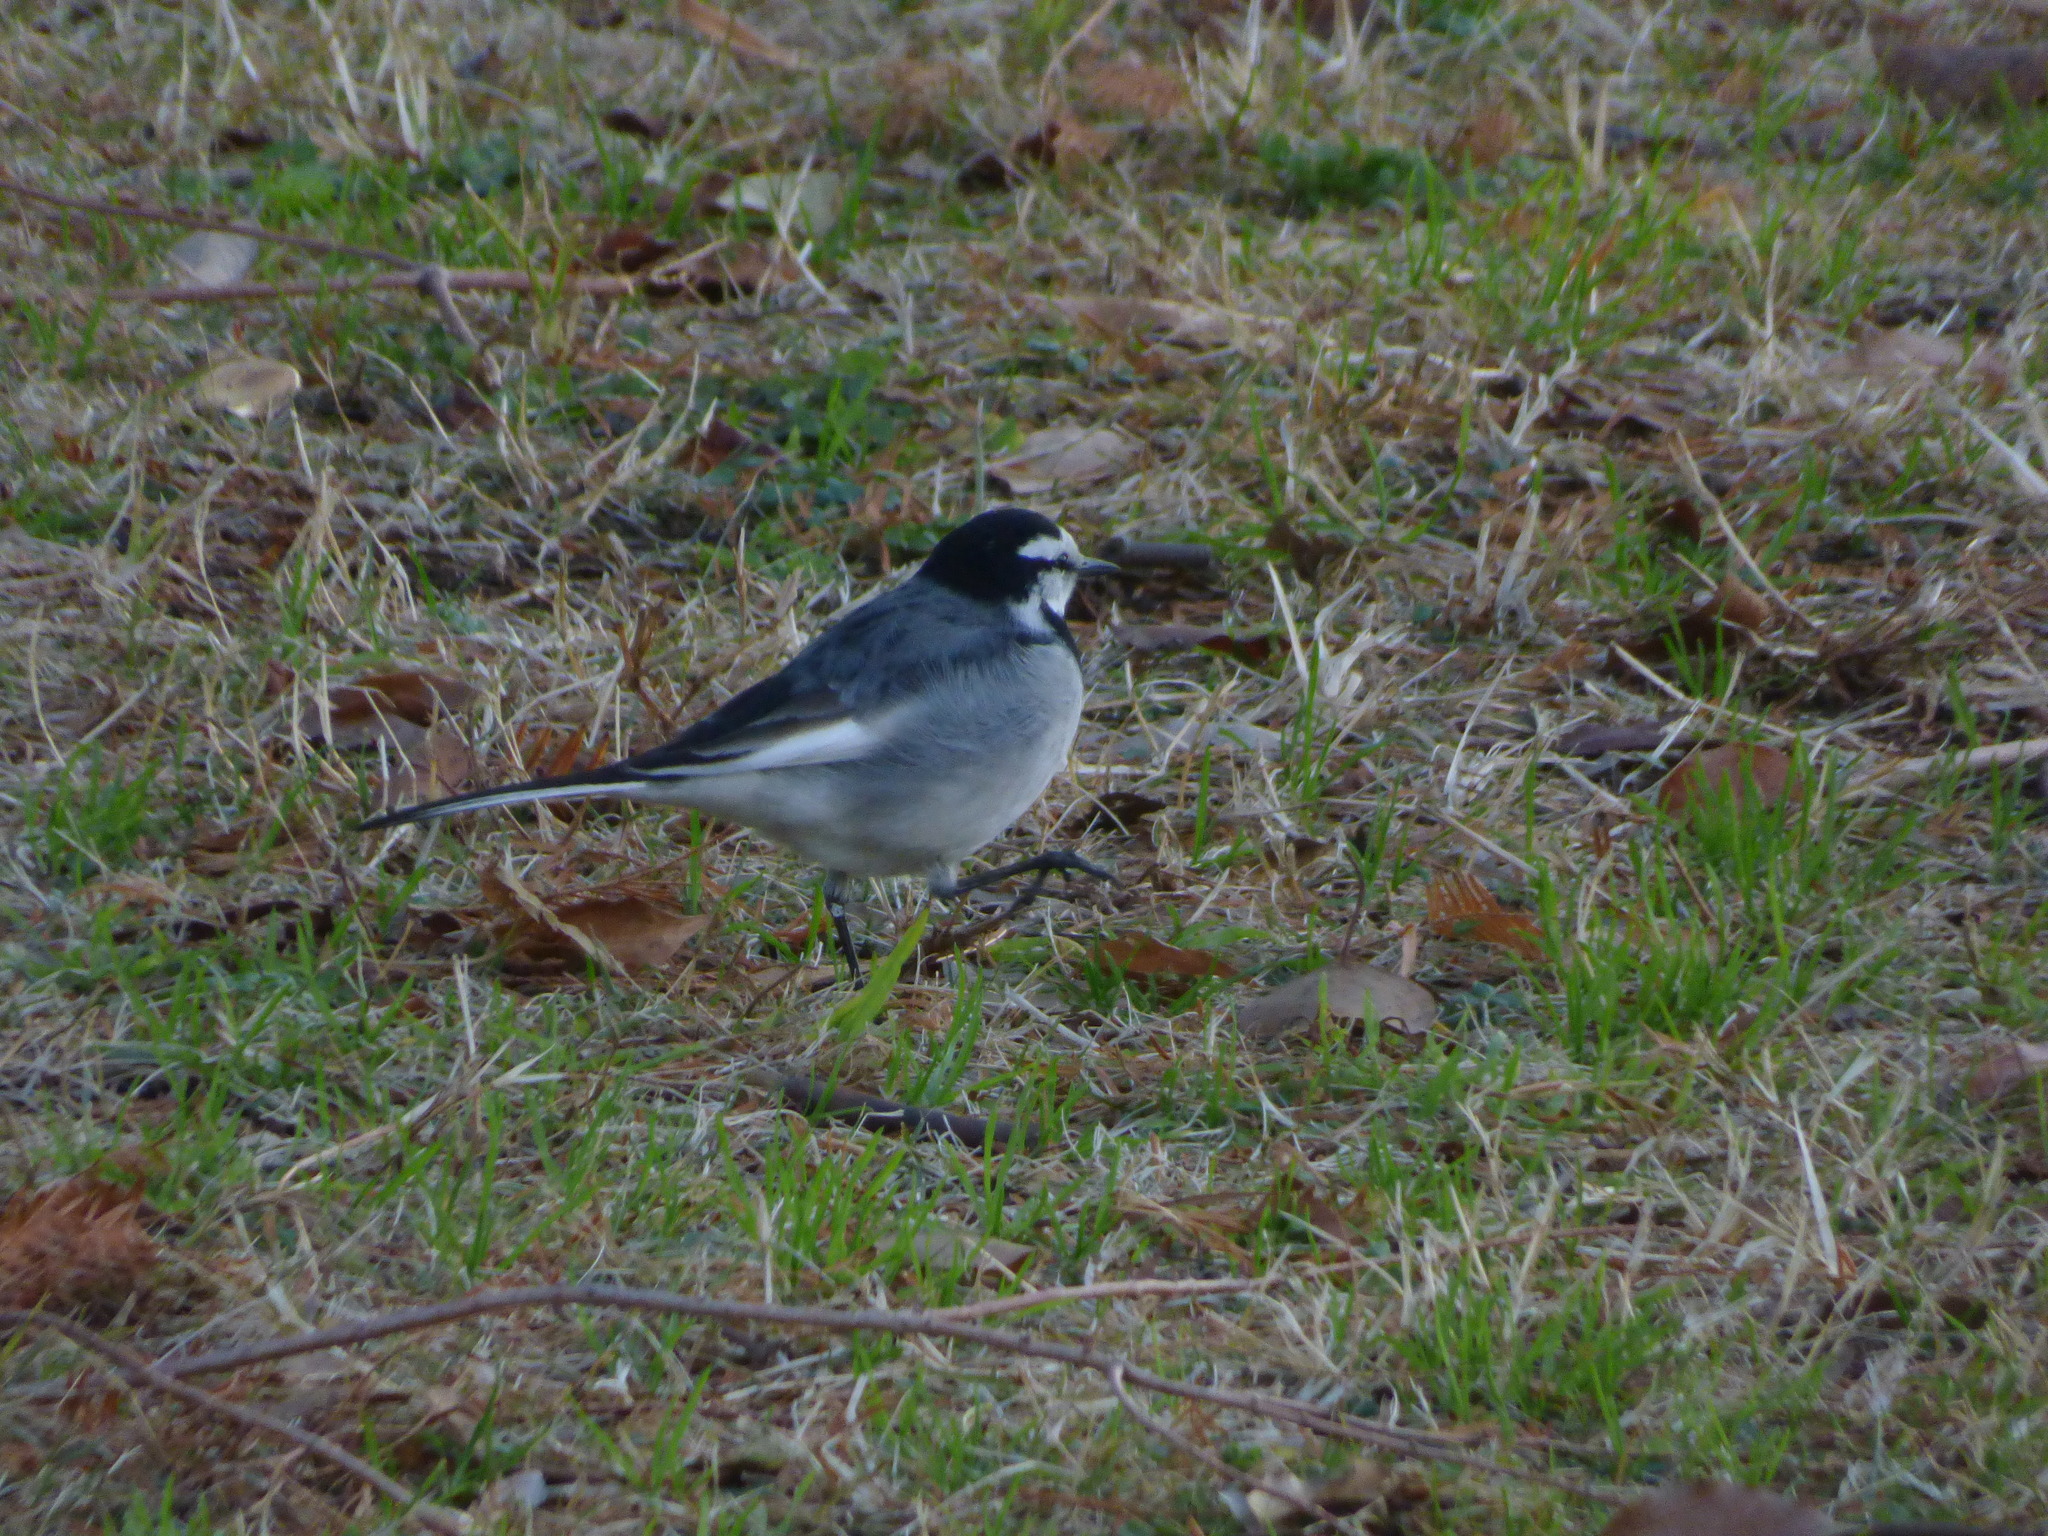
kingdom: Animalia
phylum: Chordata
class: Aves
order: Passeriformes
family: Motacillidae
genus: Motacilla
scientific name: Motacilla alba
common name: White wagtail
